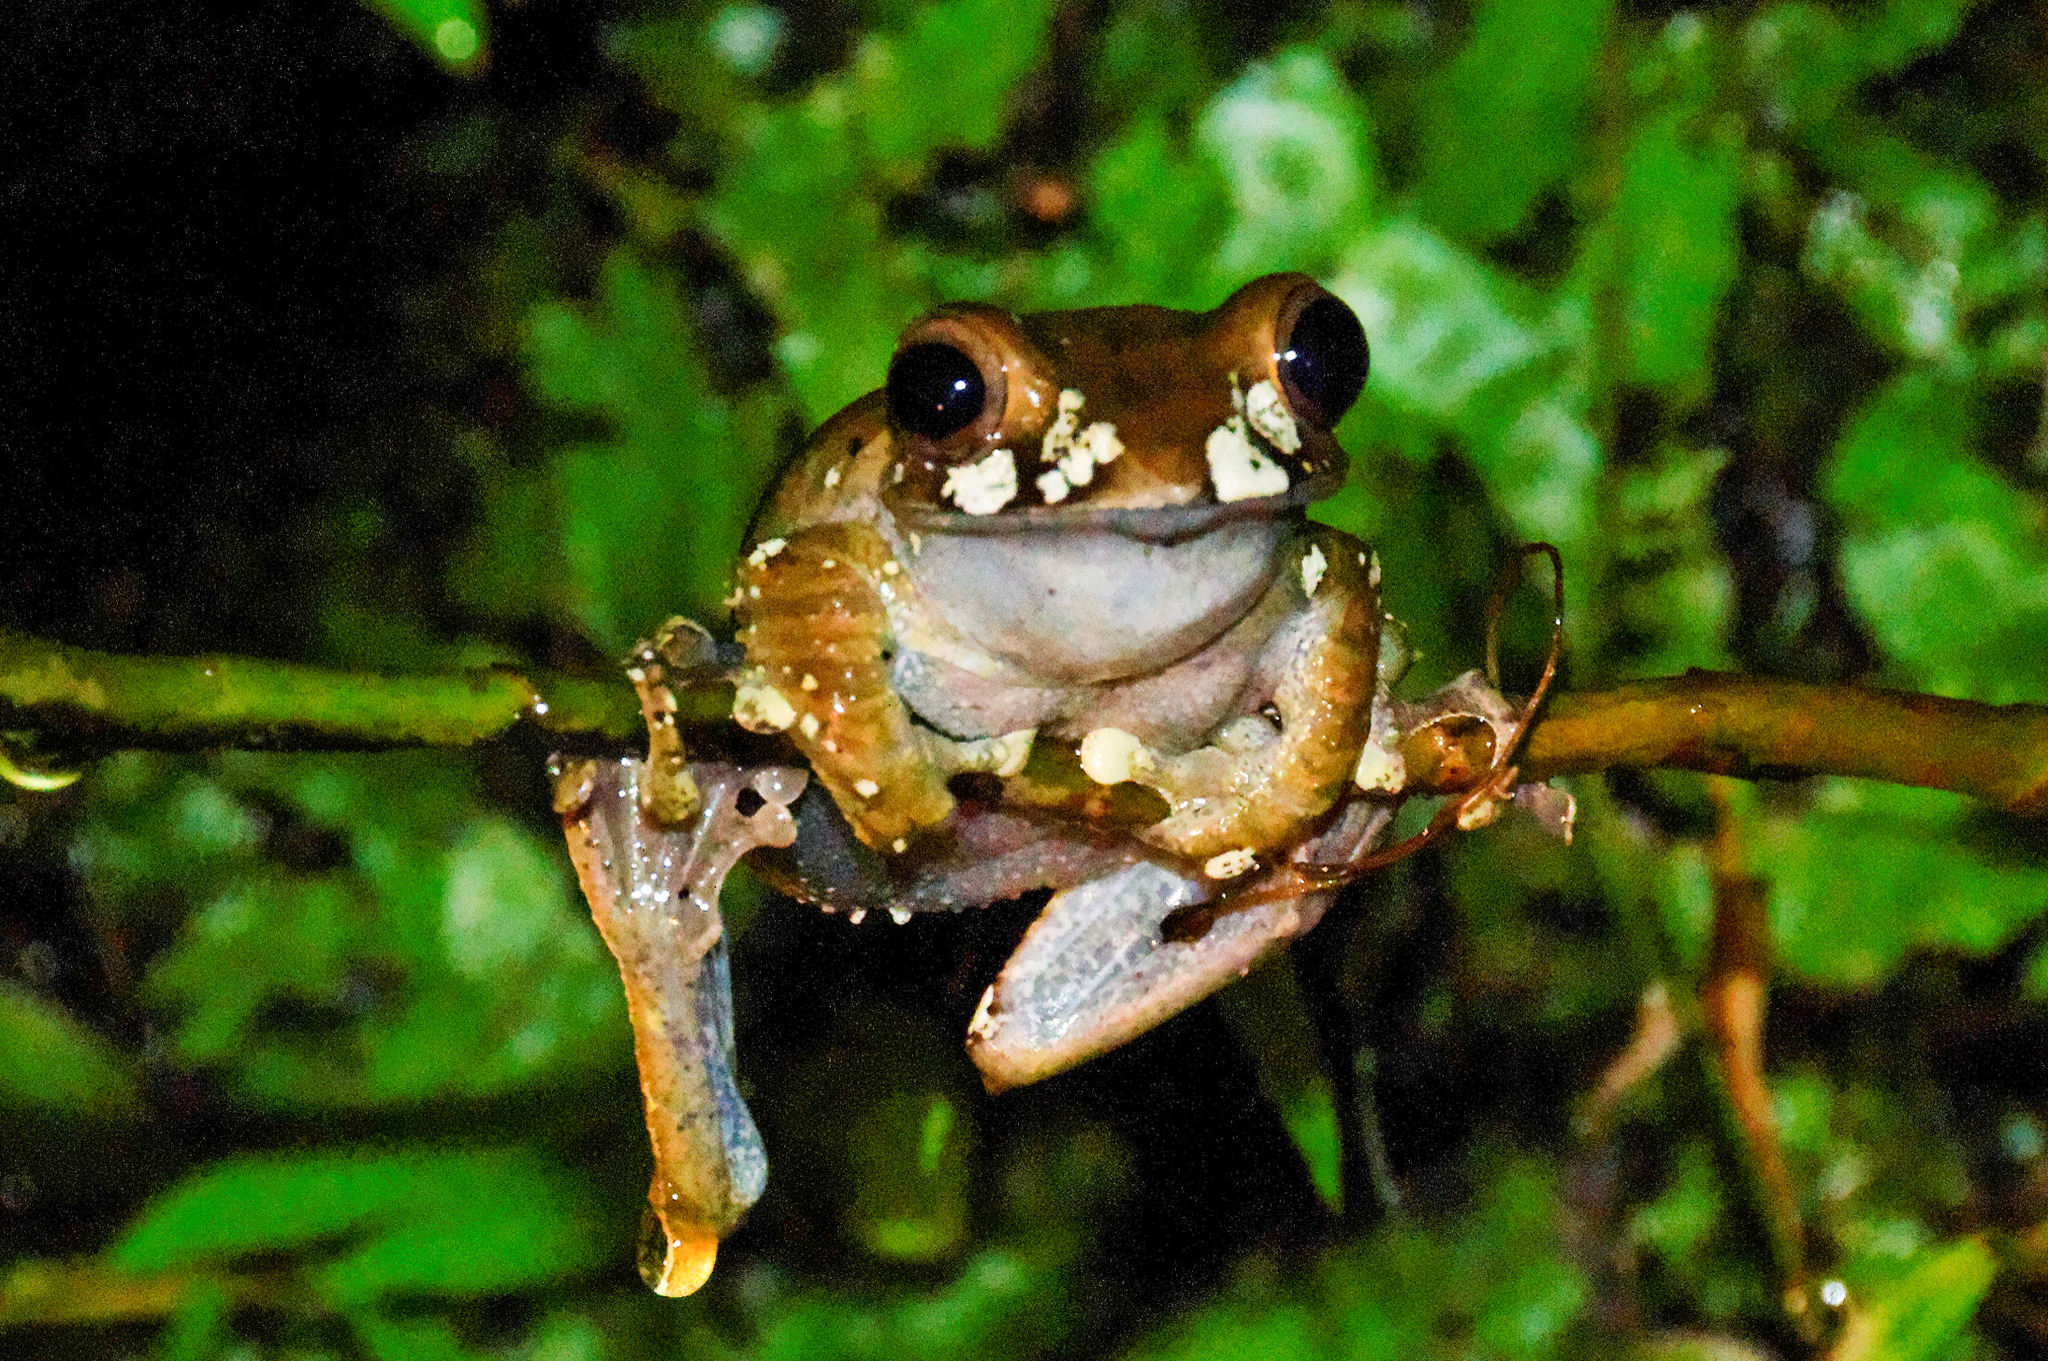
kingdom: Animalia
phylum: Chordata
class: Amphibia
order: Anura
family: Mantellidae
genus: Boophis
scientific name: Boophis madagascariensis
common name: Madagascar bright-eyed frog
